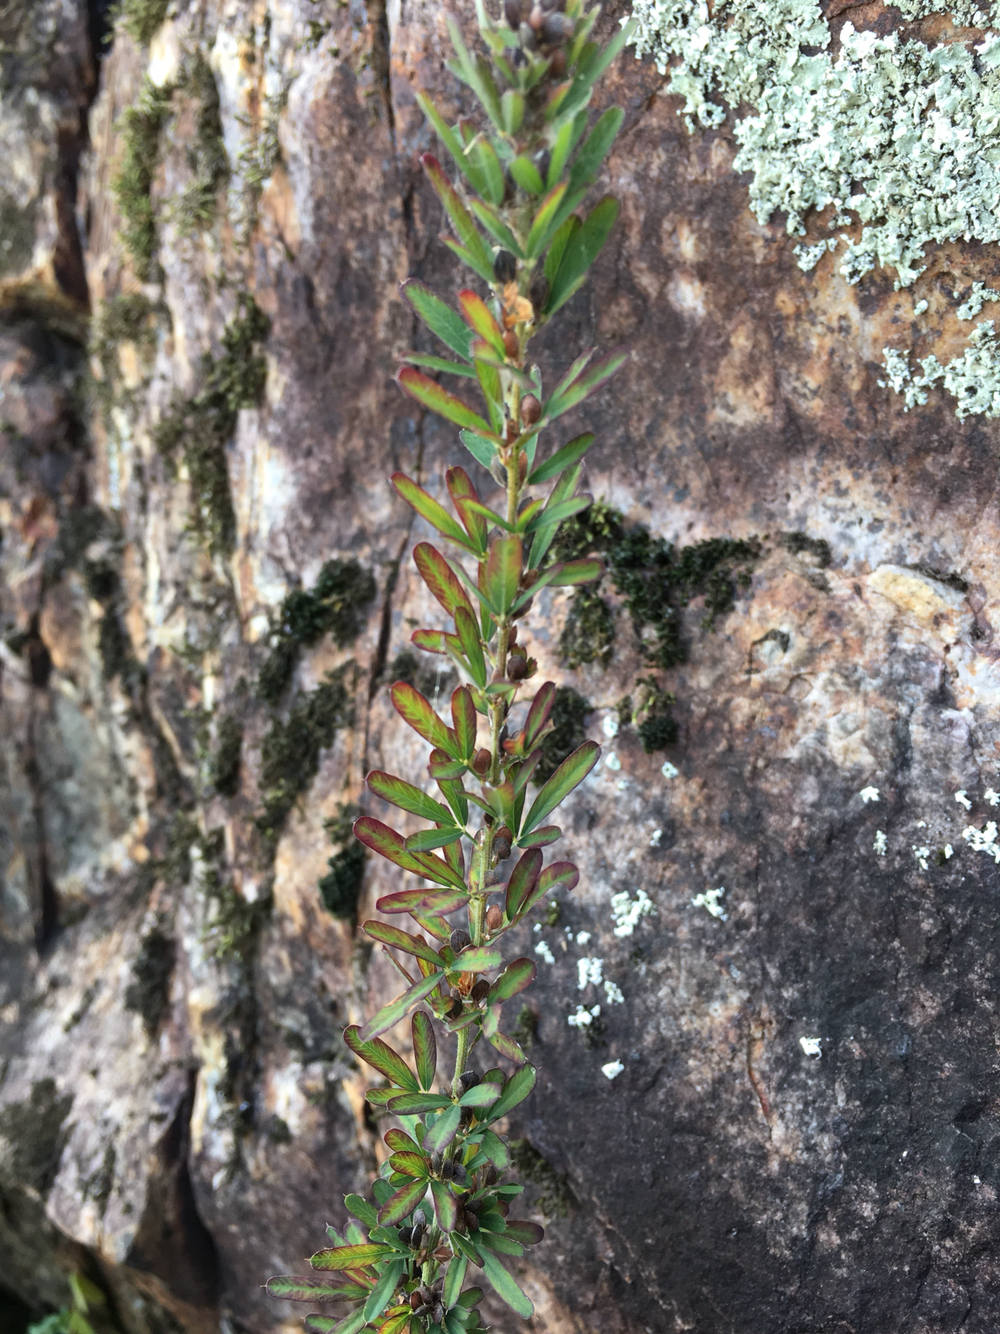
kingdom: Plantae
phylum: Tracheophyta
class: Magnoliopsida
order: Fabales
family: Fabaceae
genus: Lespedeza
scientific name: Lespedeza cuneata
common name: Chinese bush-clover
